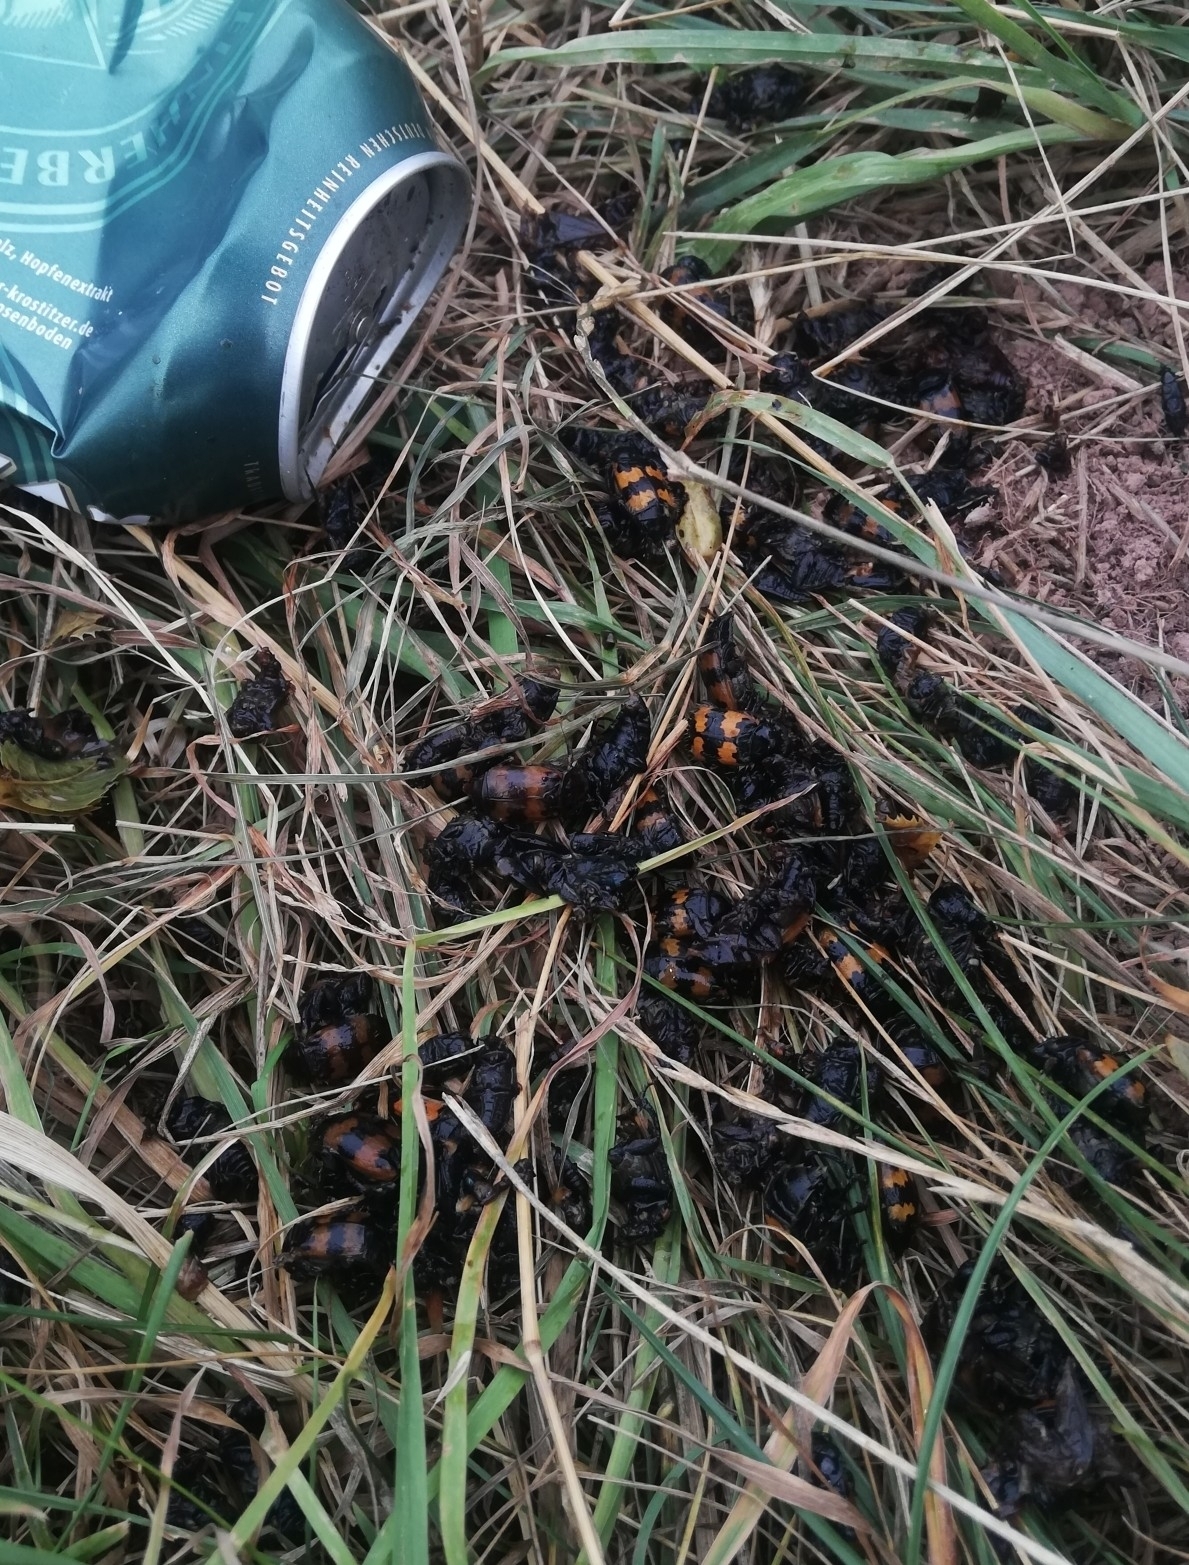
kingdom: Animalia
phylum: Arthropoda
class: Insecta
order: Coleoptera
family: Staphylinidae
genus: Nicrophorus
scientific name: Nicrophorus vespillo
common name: Common burying beetle
